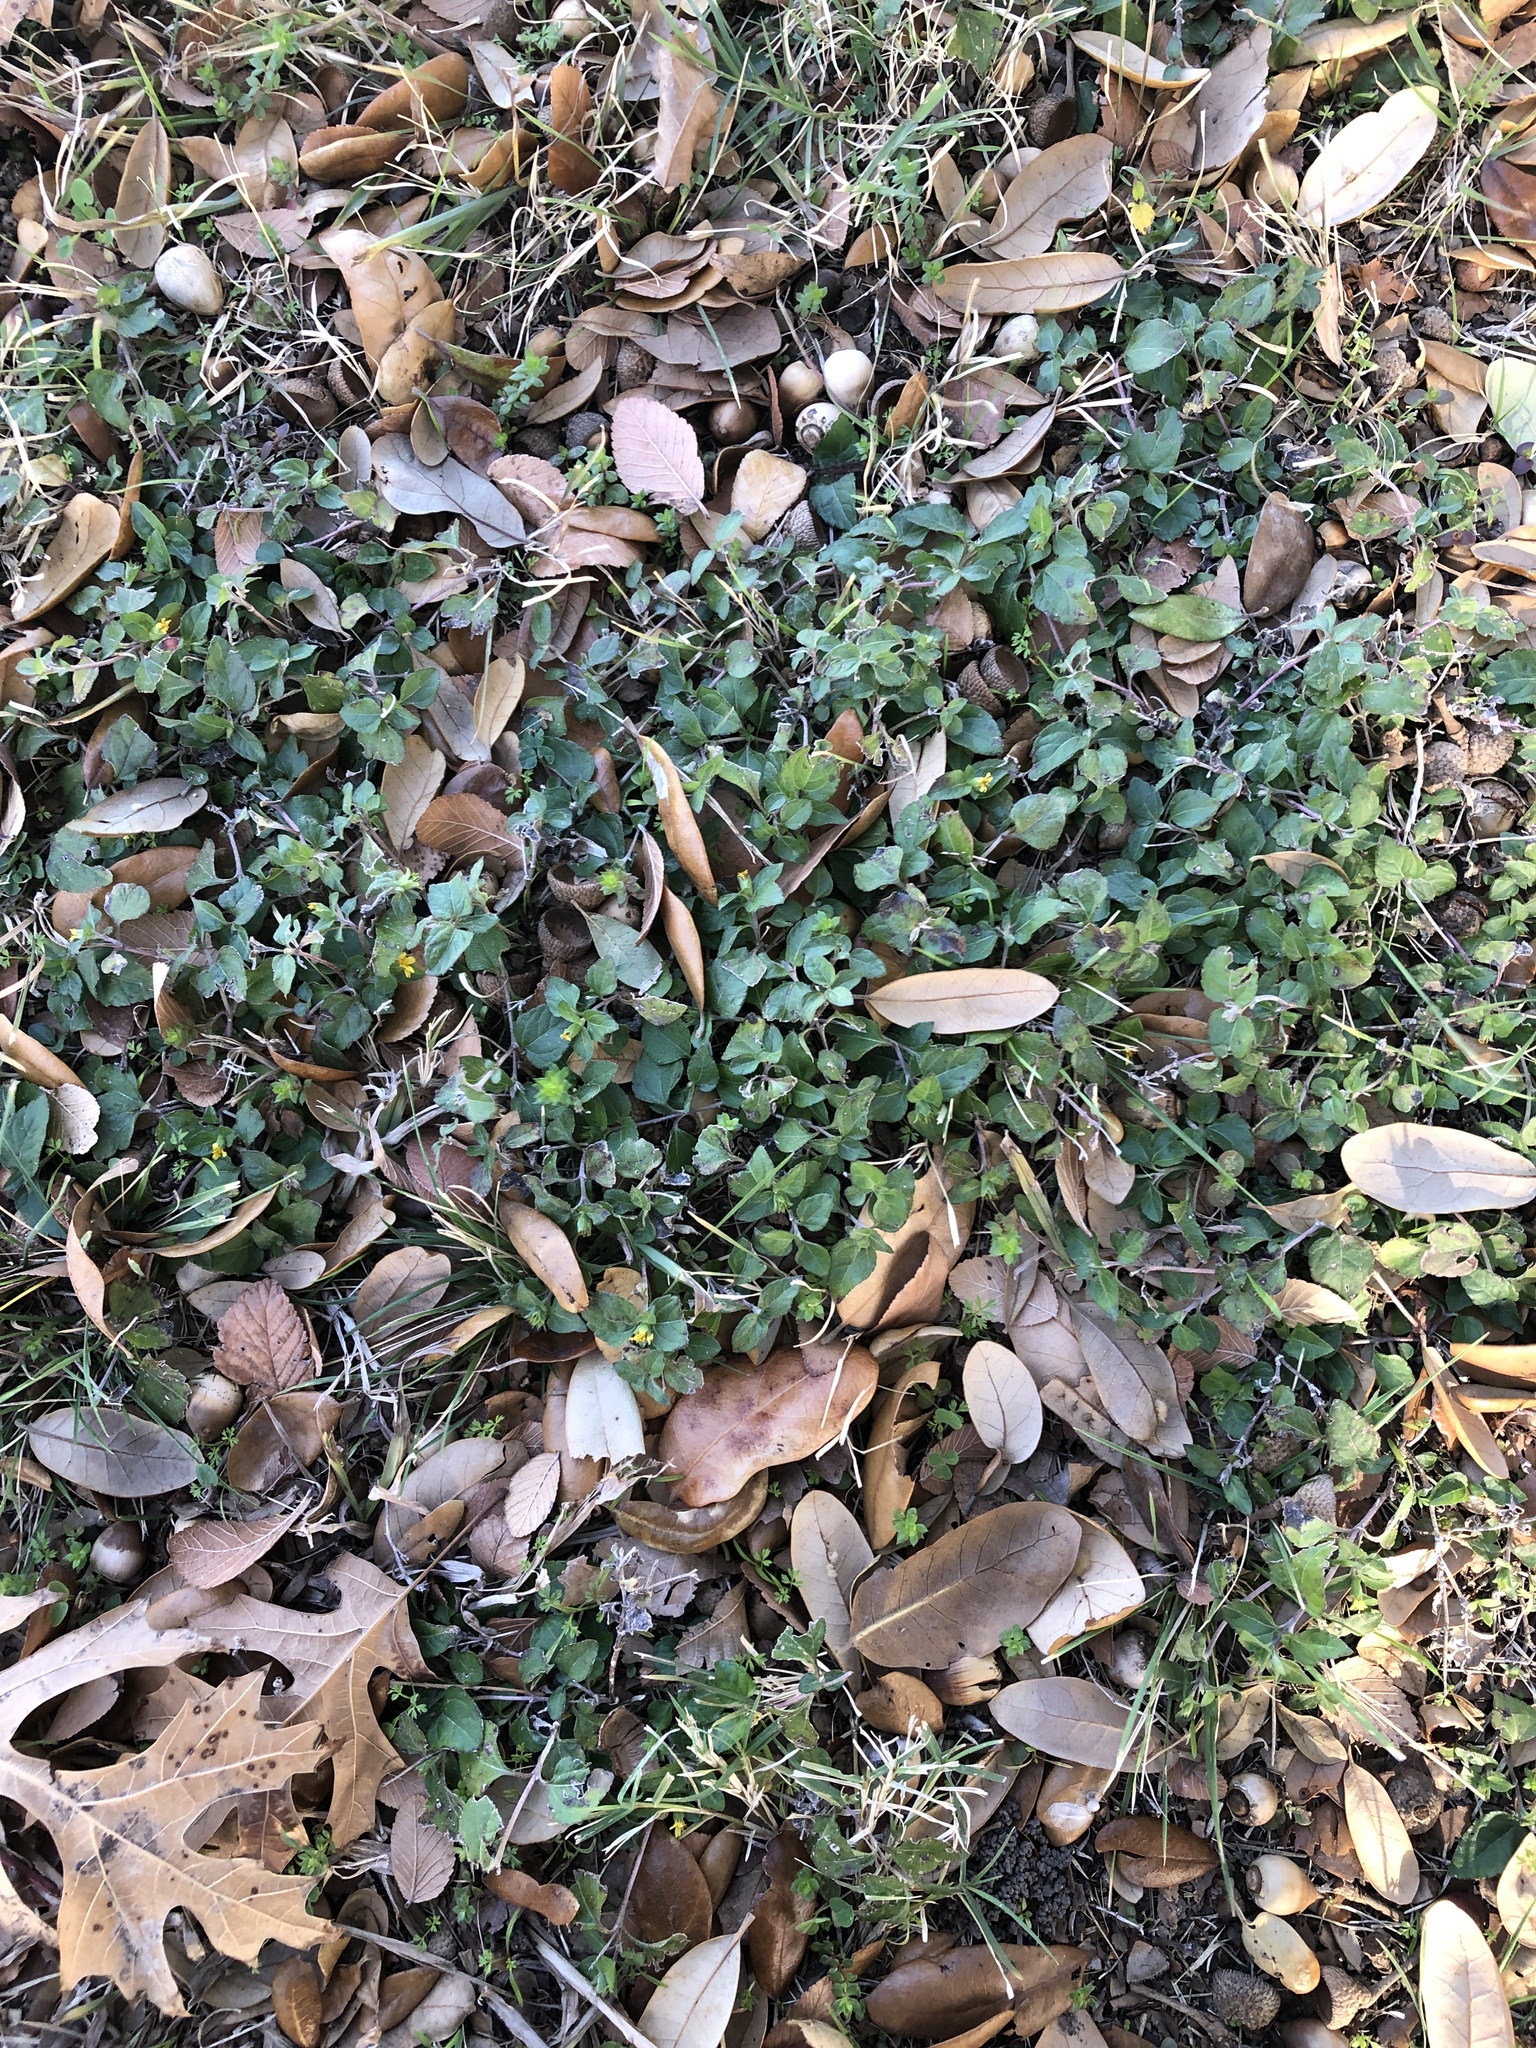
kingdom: Plantae
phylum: Tracheophyta
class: Magnoliopsida
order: Asterales
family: Asteraceae
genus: Calyptocarpus
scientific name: Calyptocarpus vialis
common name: Straggler daisy
